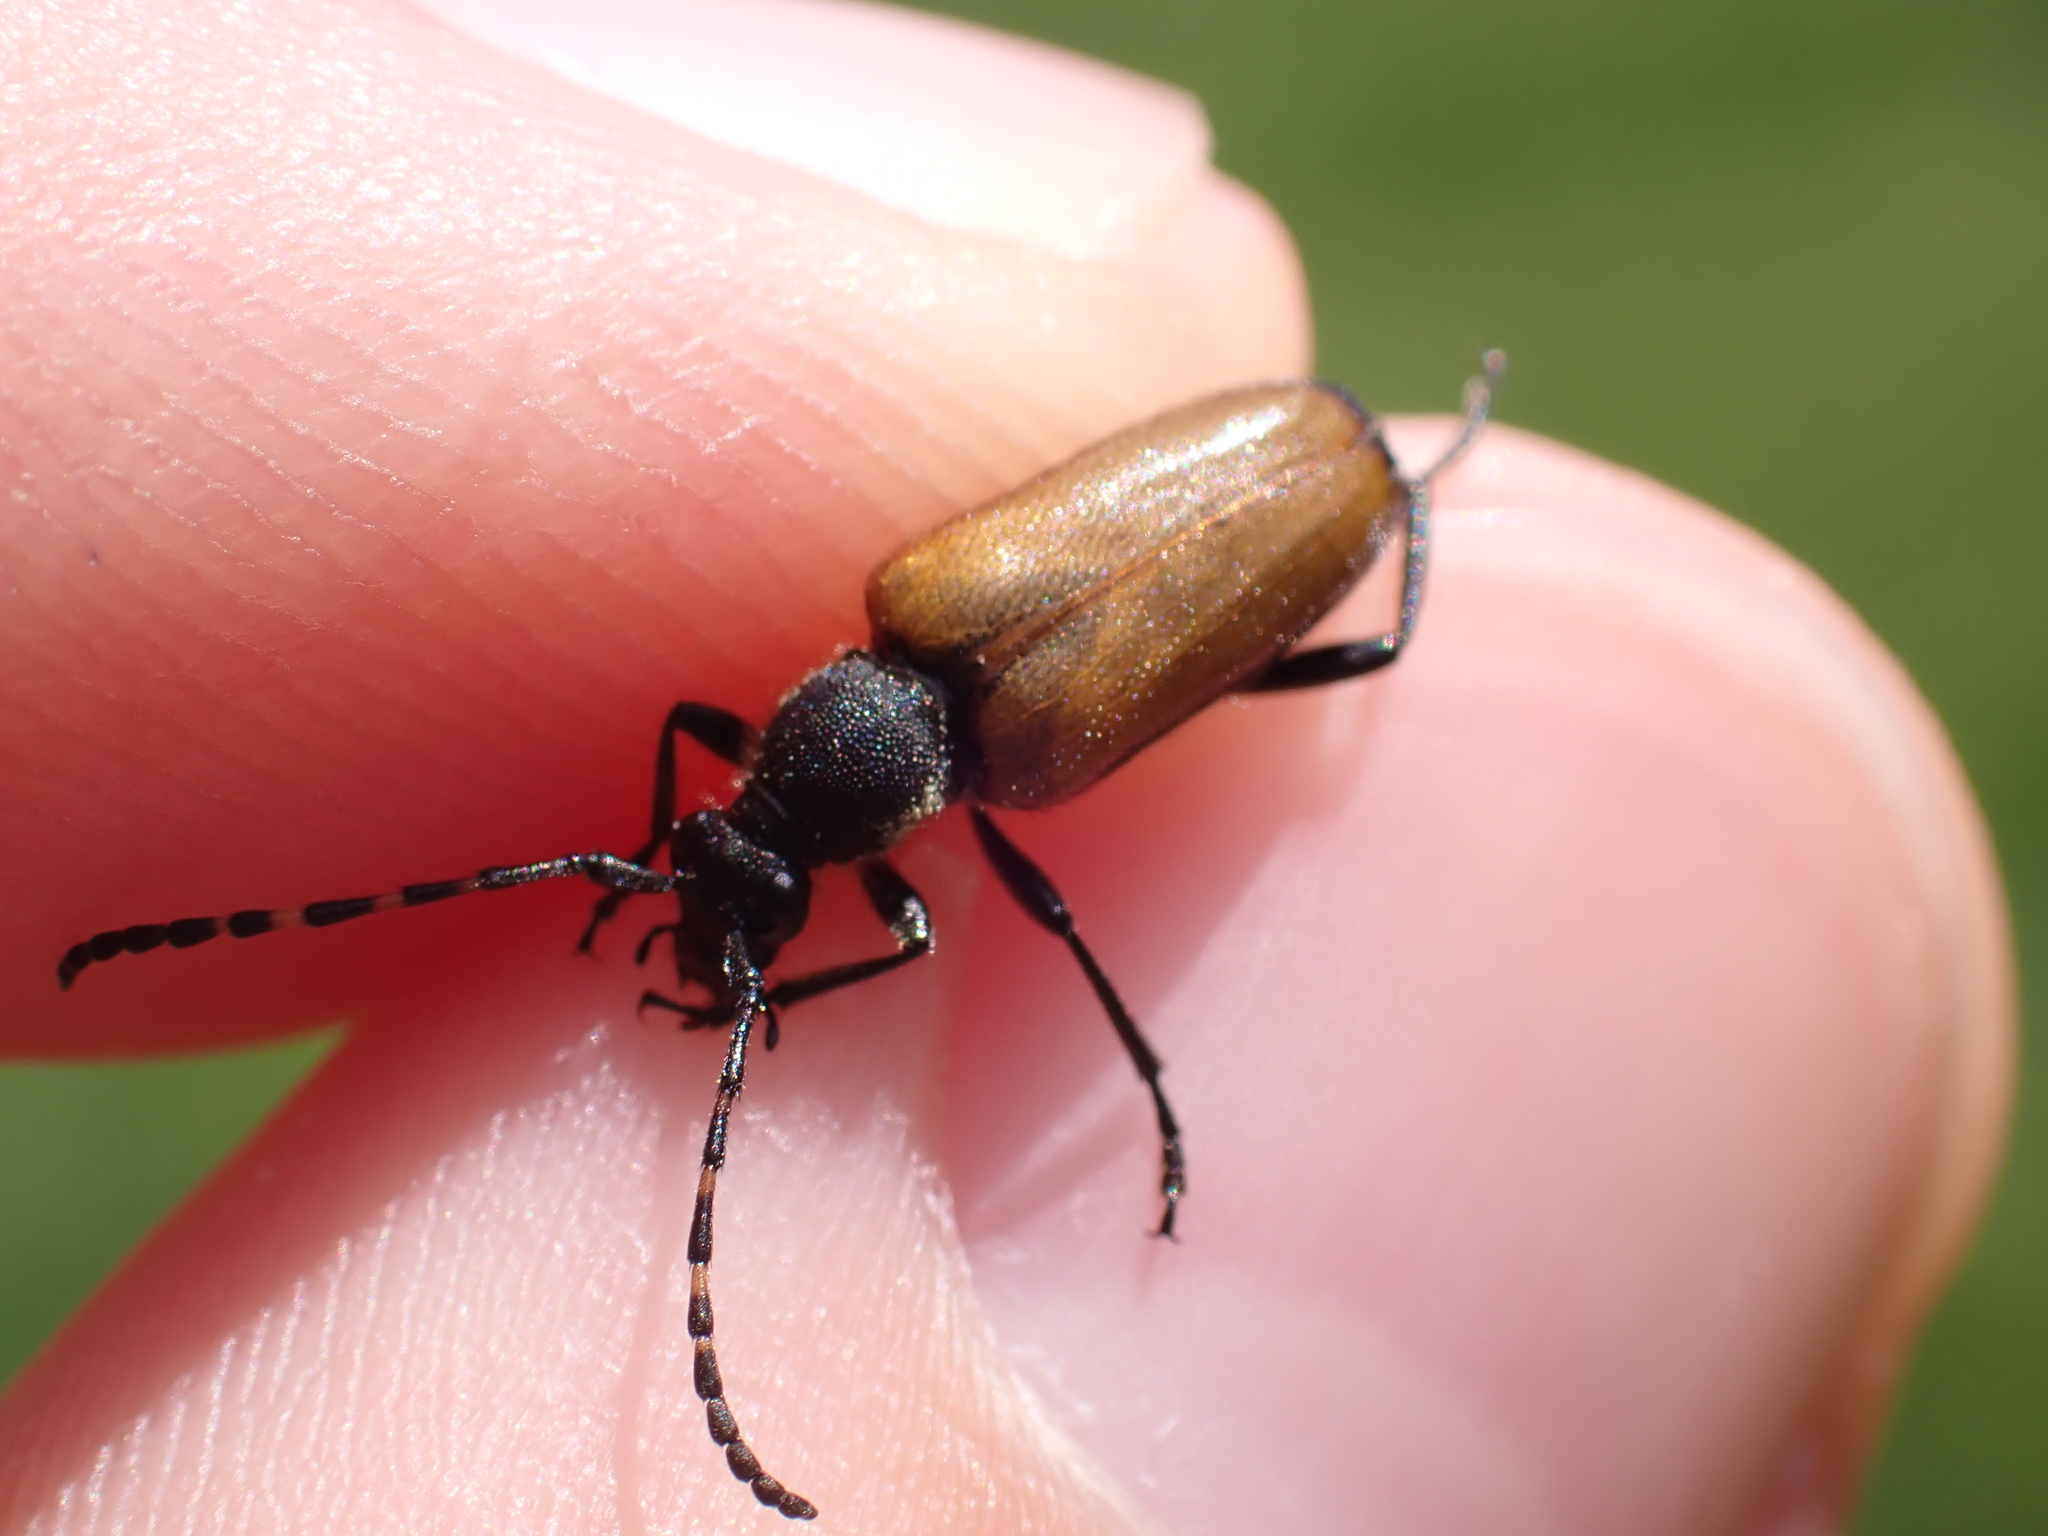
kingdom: Animalia
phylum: Arthropoda
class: Insecta
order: Coleoptera
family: Cerambycidae
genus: Paracorymbia
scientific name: Paracorymbia maculicornis
